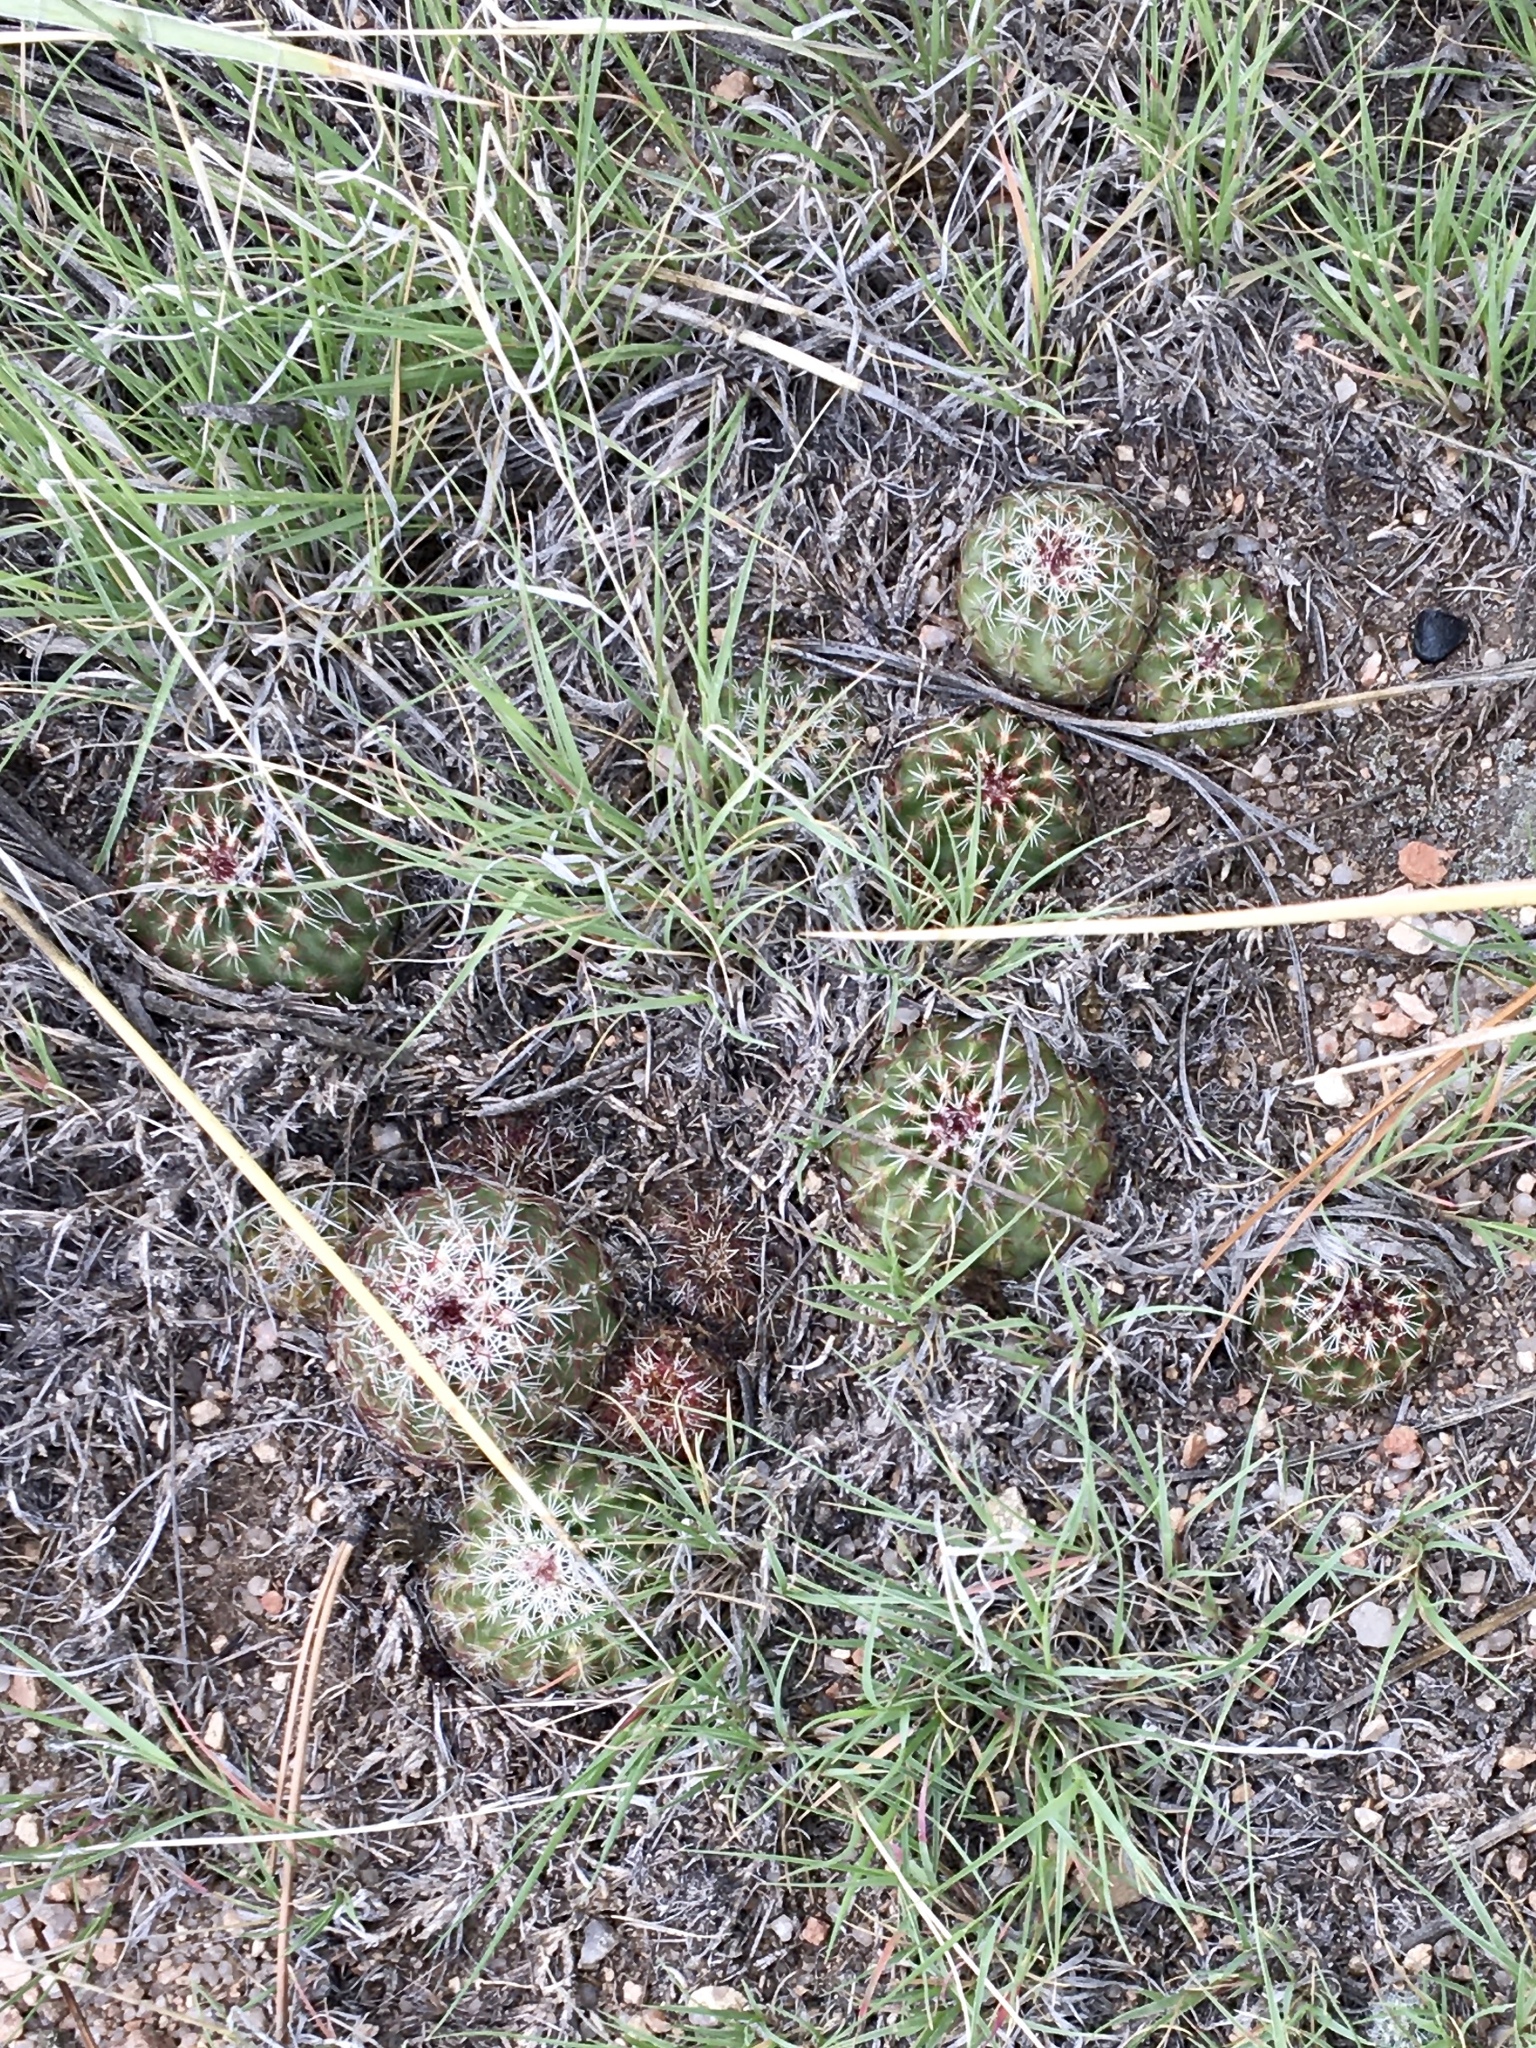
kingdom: Plantae
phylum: Tracheophyta
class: Magnoliopsida
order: Caryophyllales
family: Cactaceae
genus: Echinocereus
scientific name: Echinocereus viridiflorus
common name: Nylon hedgehog cactus
